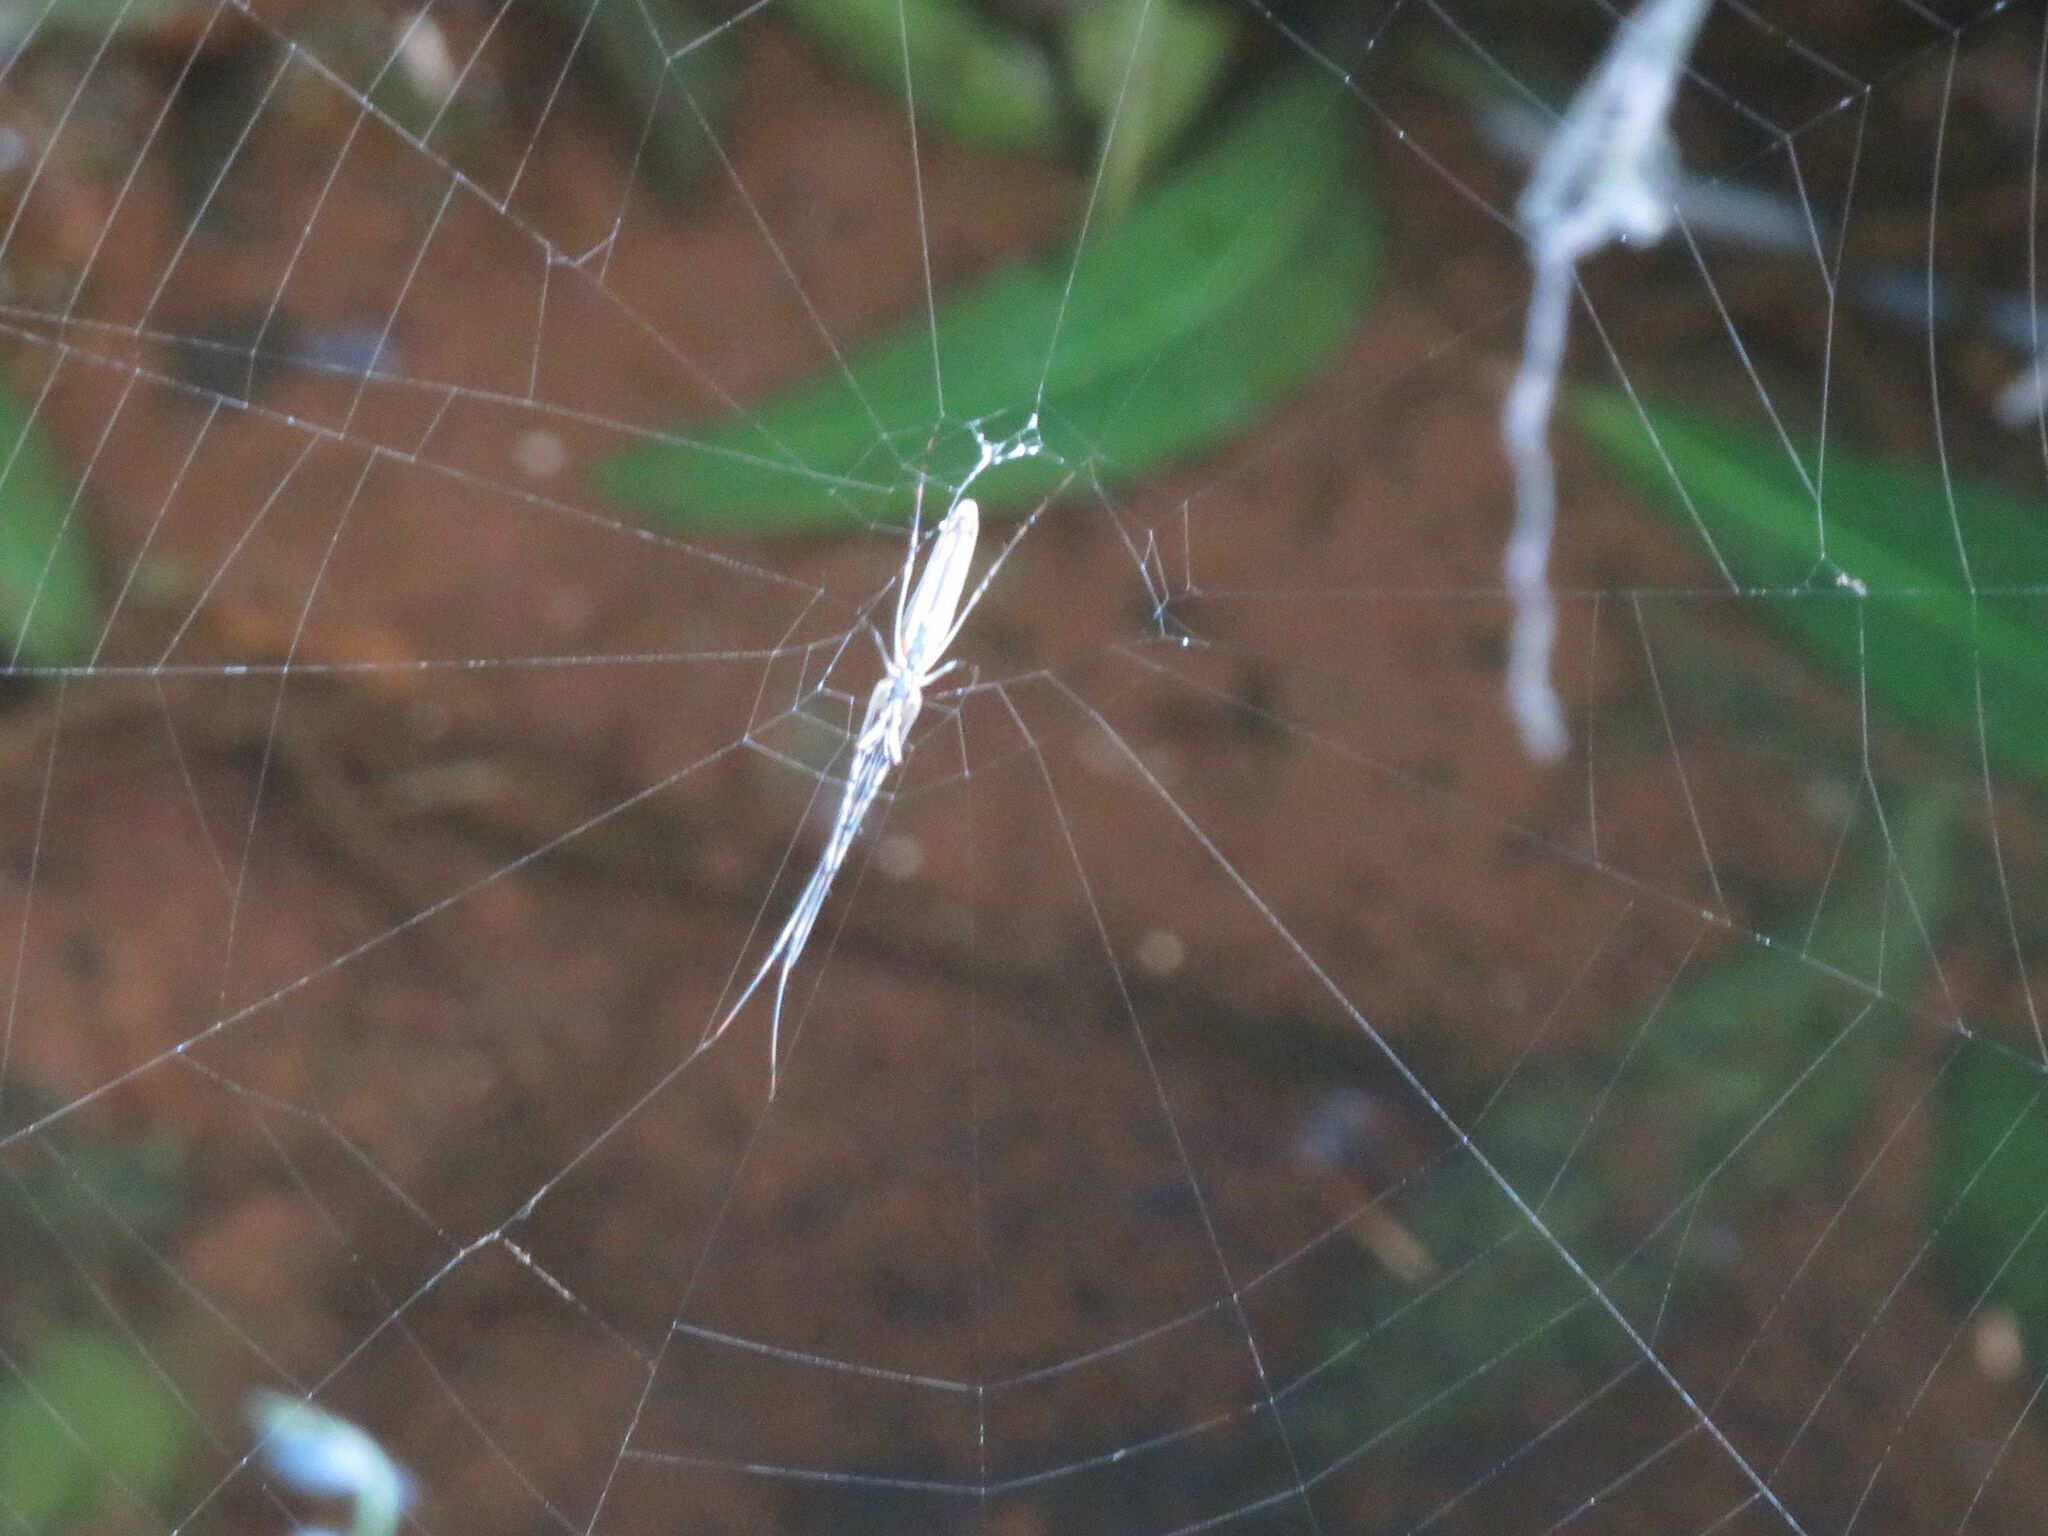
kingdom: Animalia
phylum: Arthropoda
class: Arachnida
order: Araneae
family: Tetragnathidae
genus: Tetragnatha
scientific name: Tetragnatha
